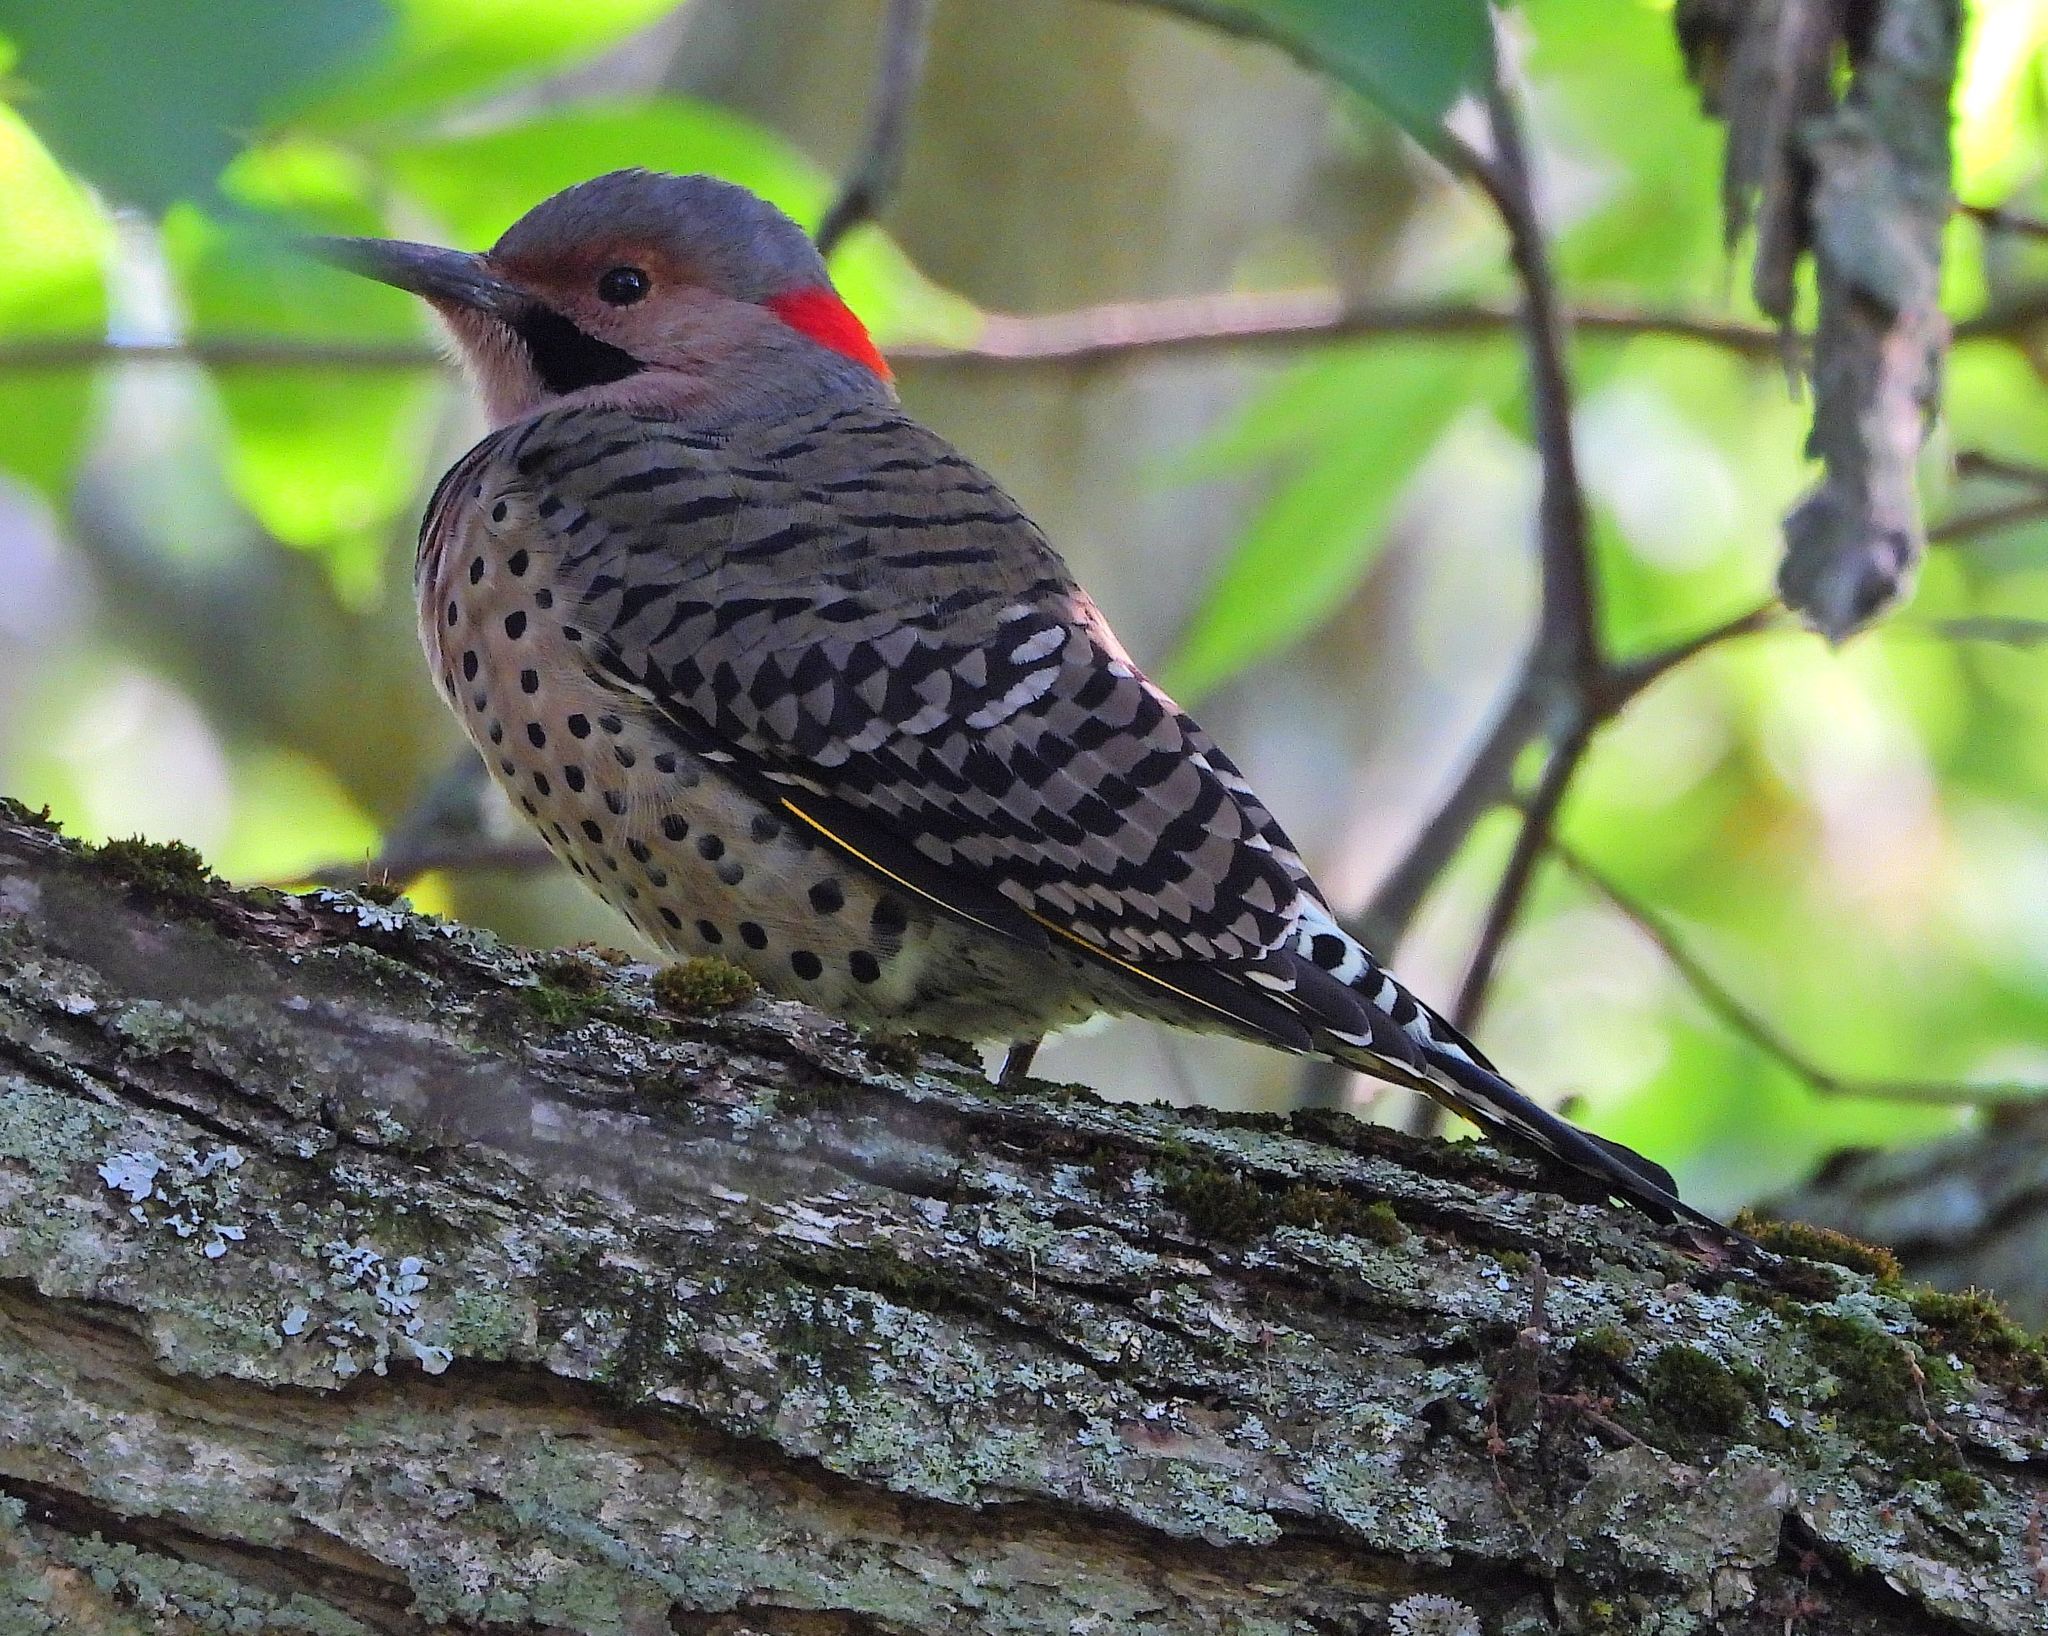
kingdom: Animalia
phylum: Chordata
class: Aves
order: Piciformes
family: Picidae
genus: Colaptes
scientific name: Colaptes auratus
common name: Northern flicker
